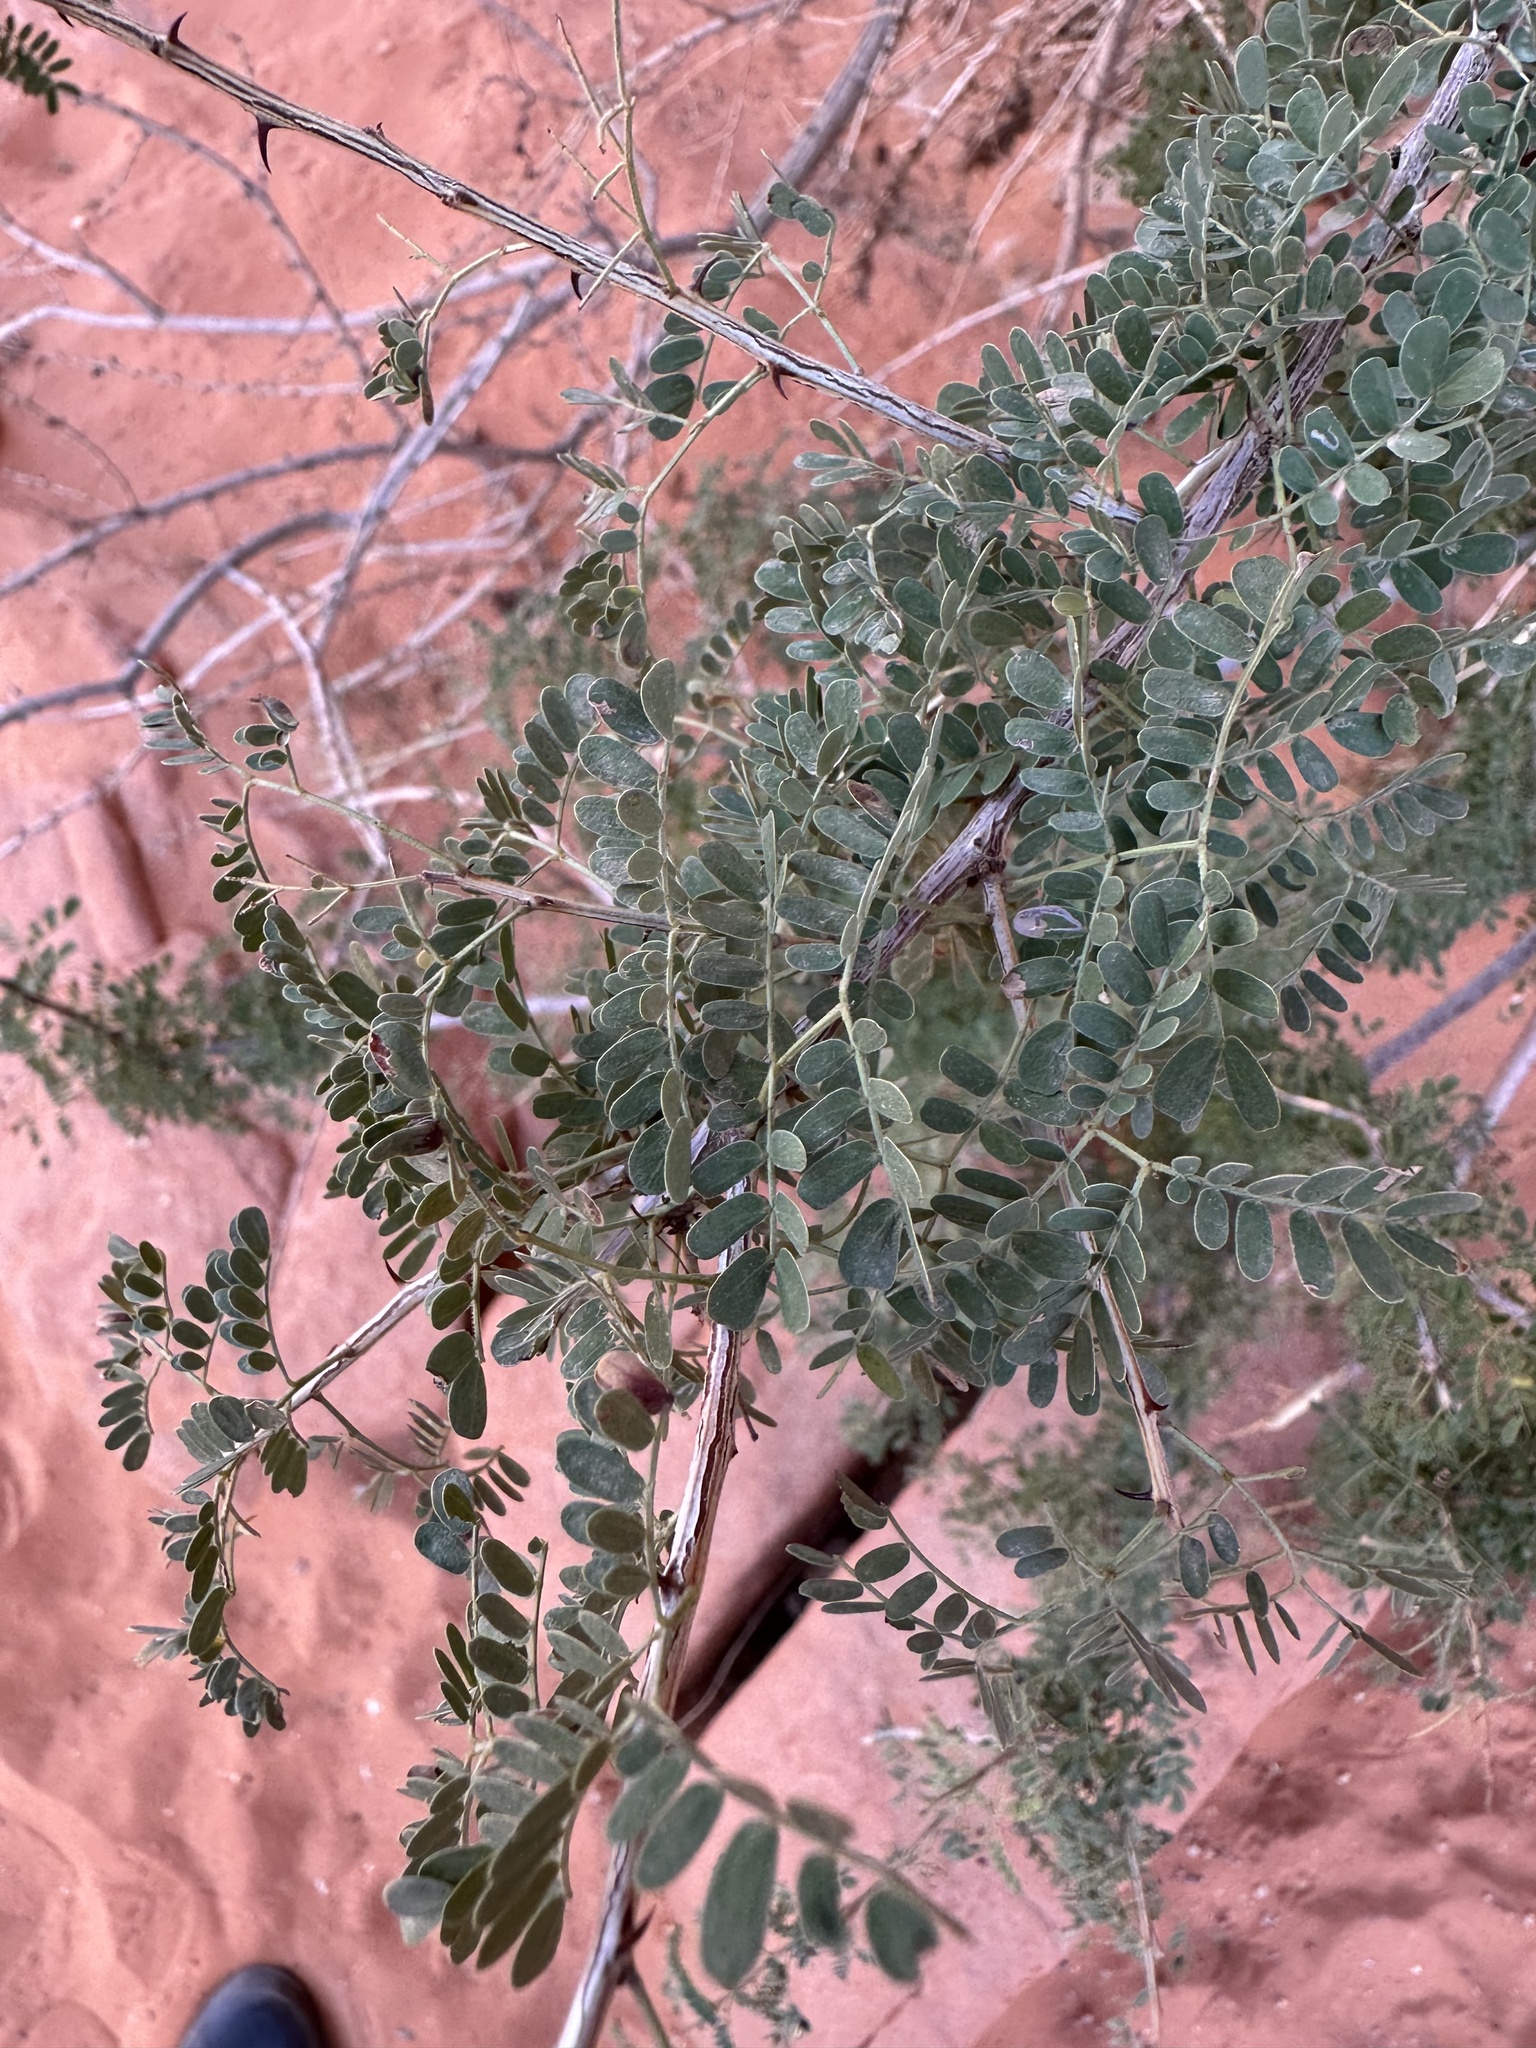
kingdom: Plantae
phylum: Tracheophyta
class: Magnoliopsida
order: Fabales
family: Fabaceae
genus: Senegalia
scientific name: Senegalia greggii
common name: Texas-mimosa
